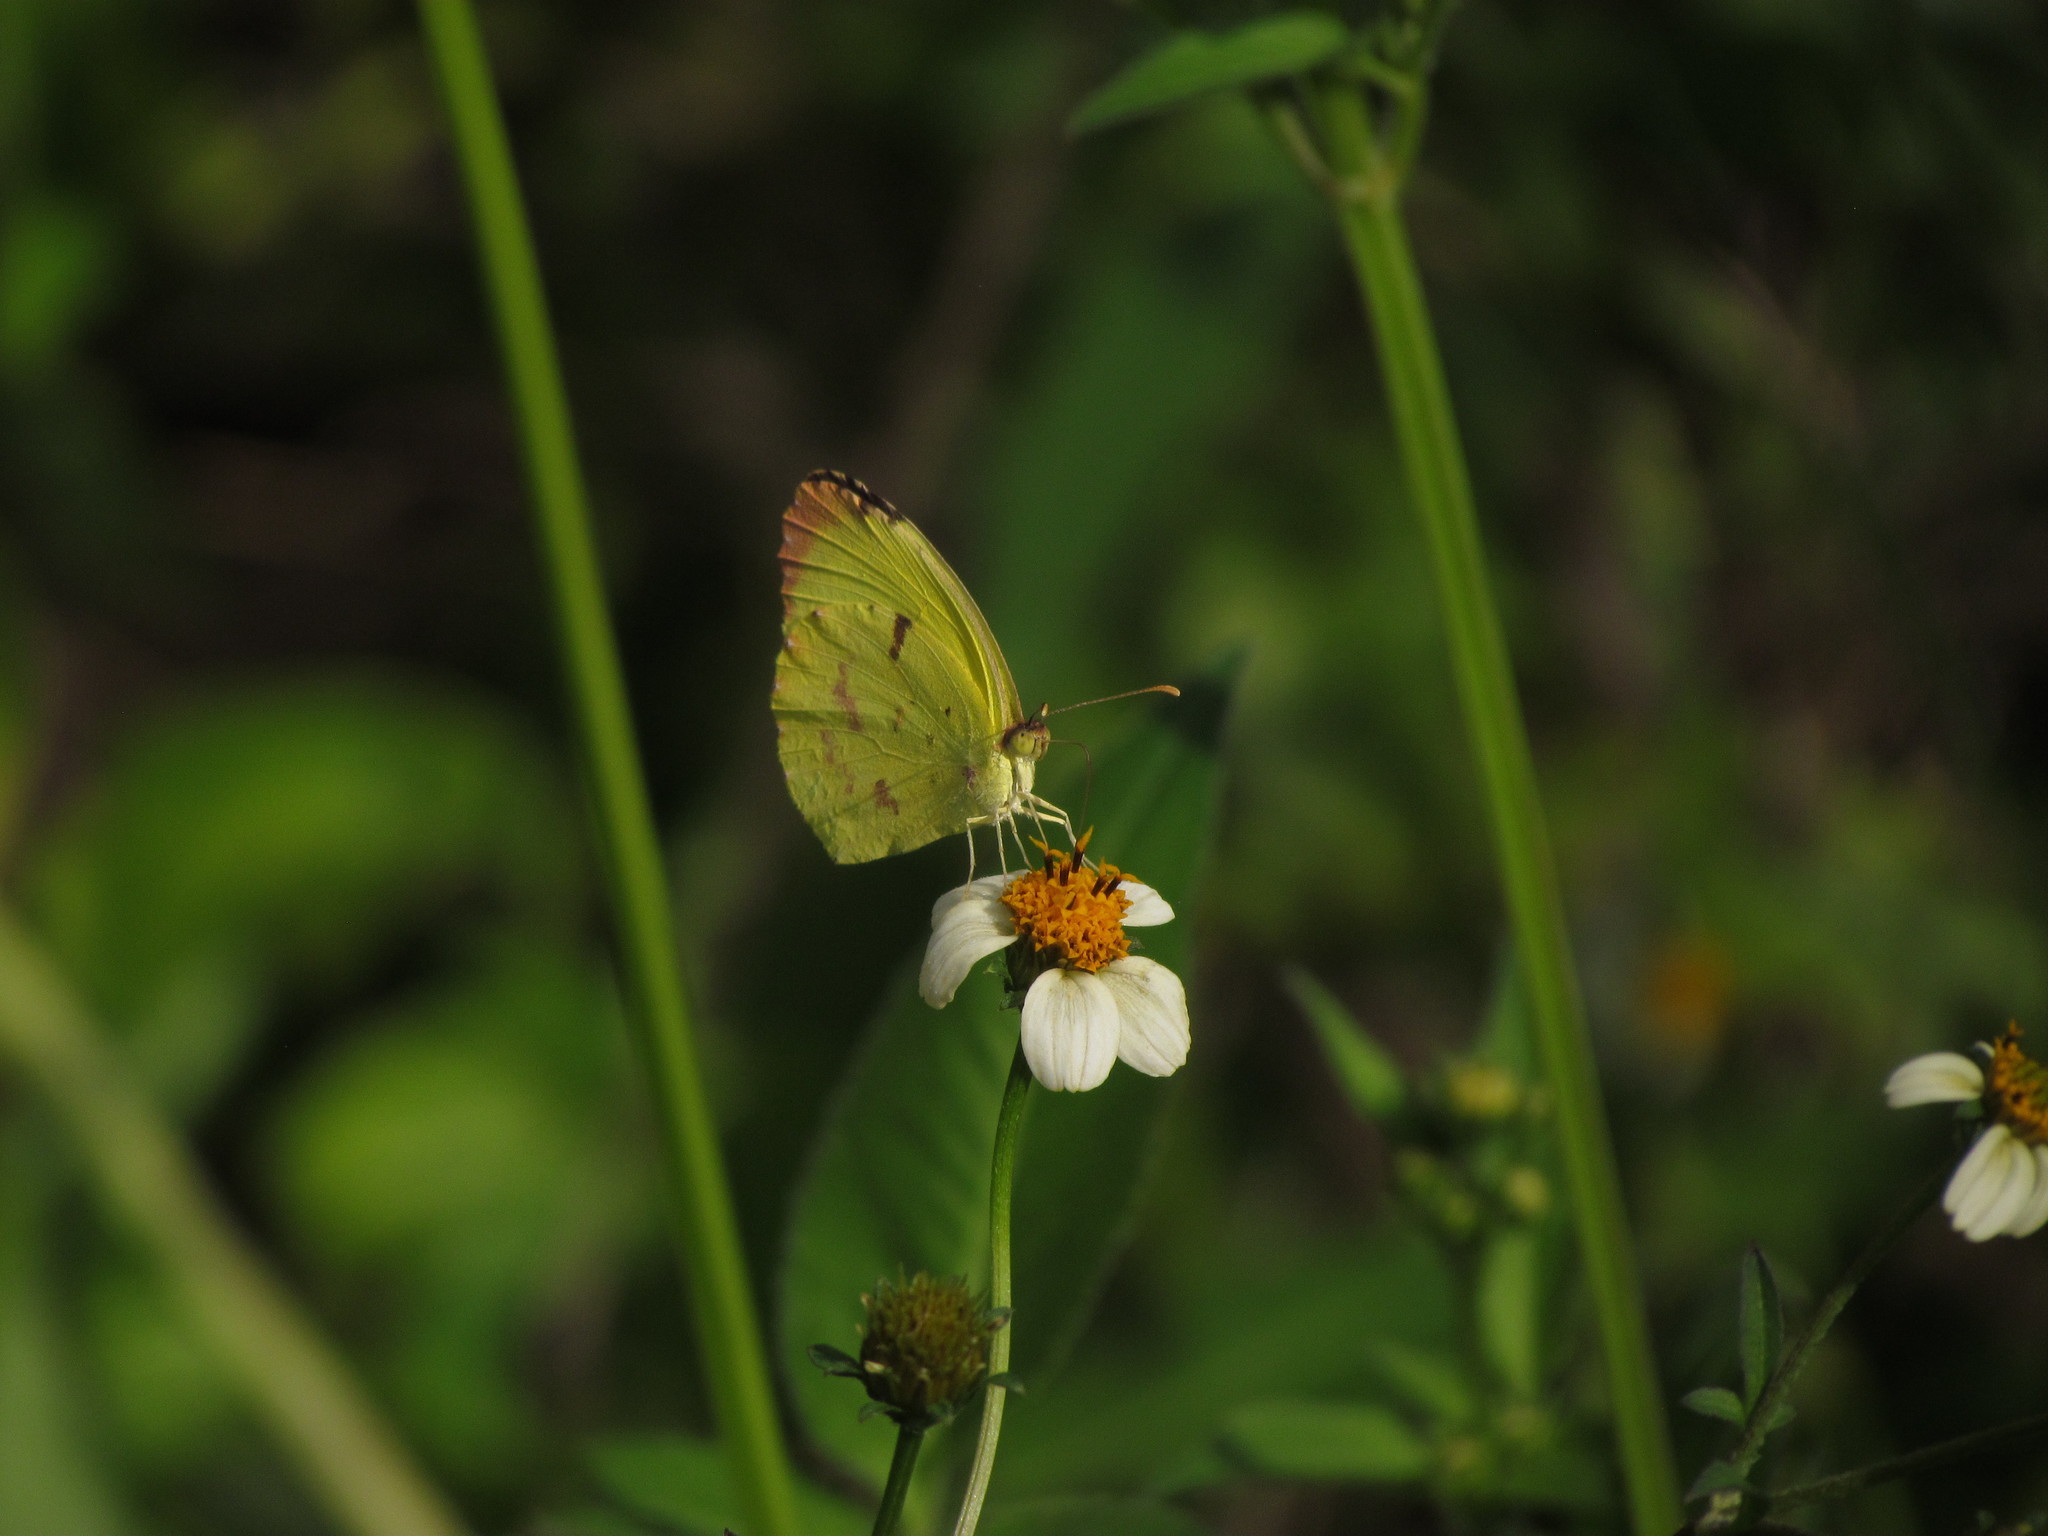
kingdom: Animalia
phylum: Arthropoda
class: Insecta
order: Lepidoptera
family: Pieridae
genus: Teriocolias
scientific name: Teriocolias
